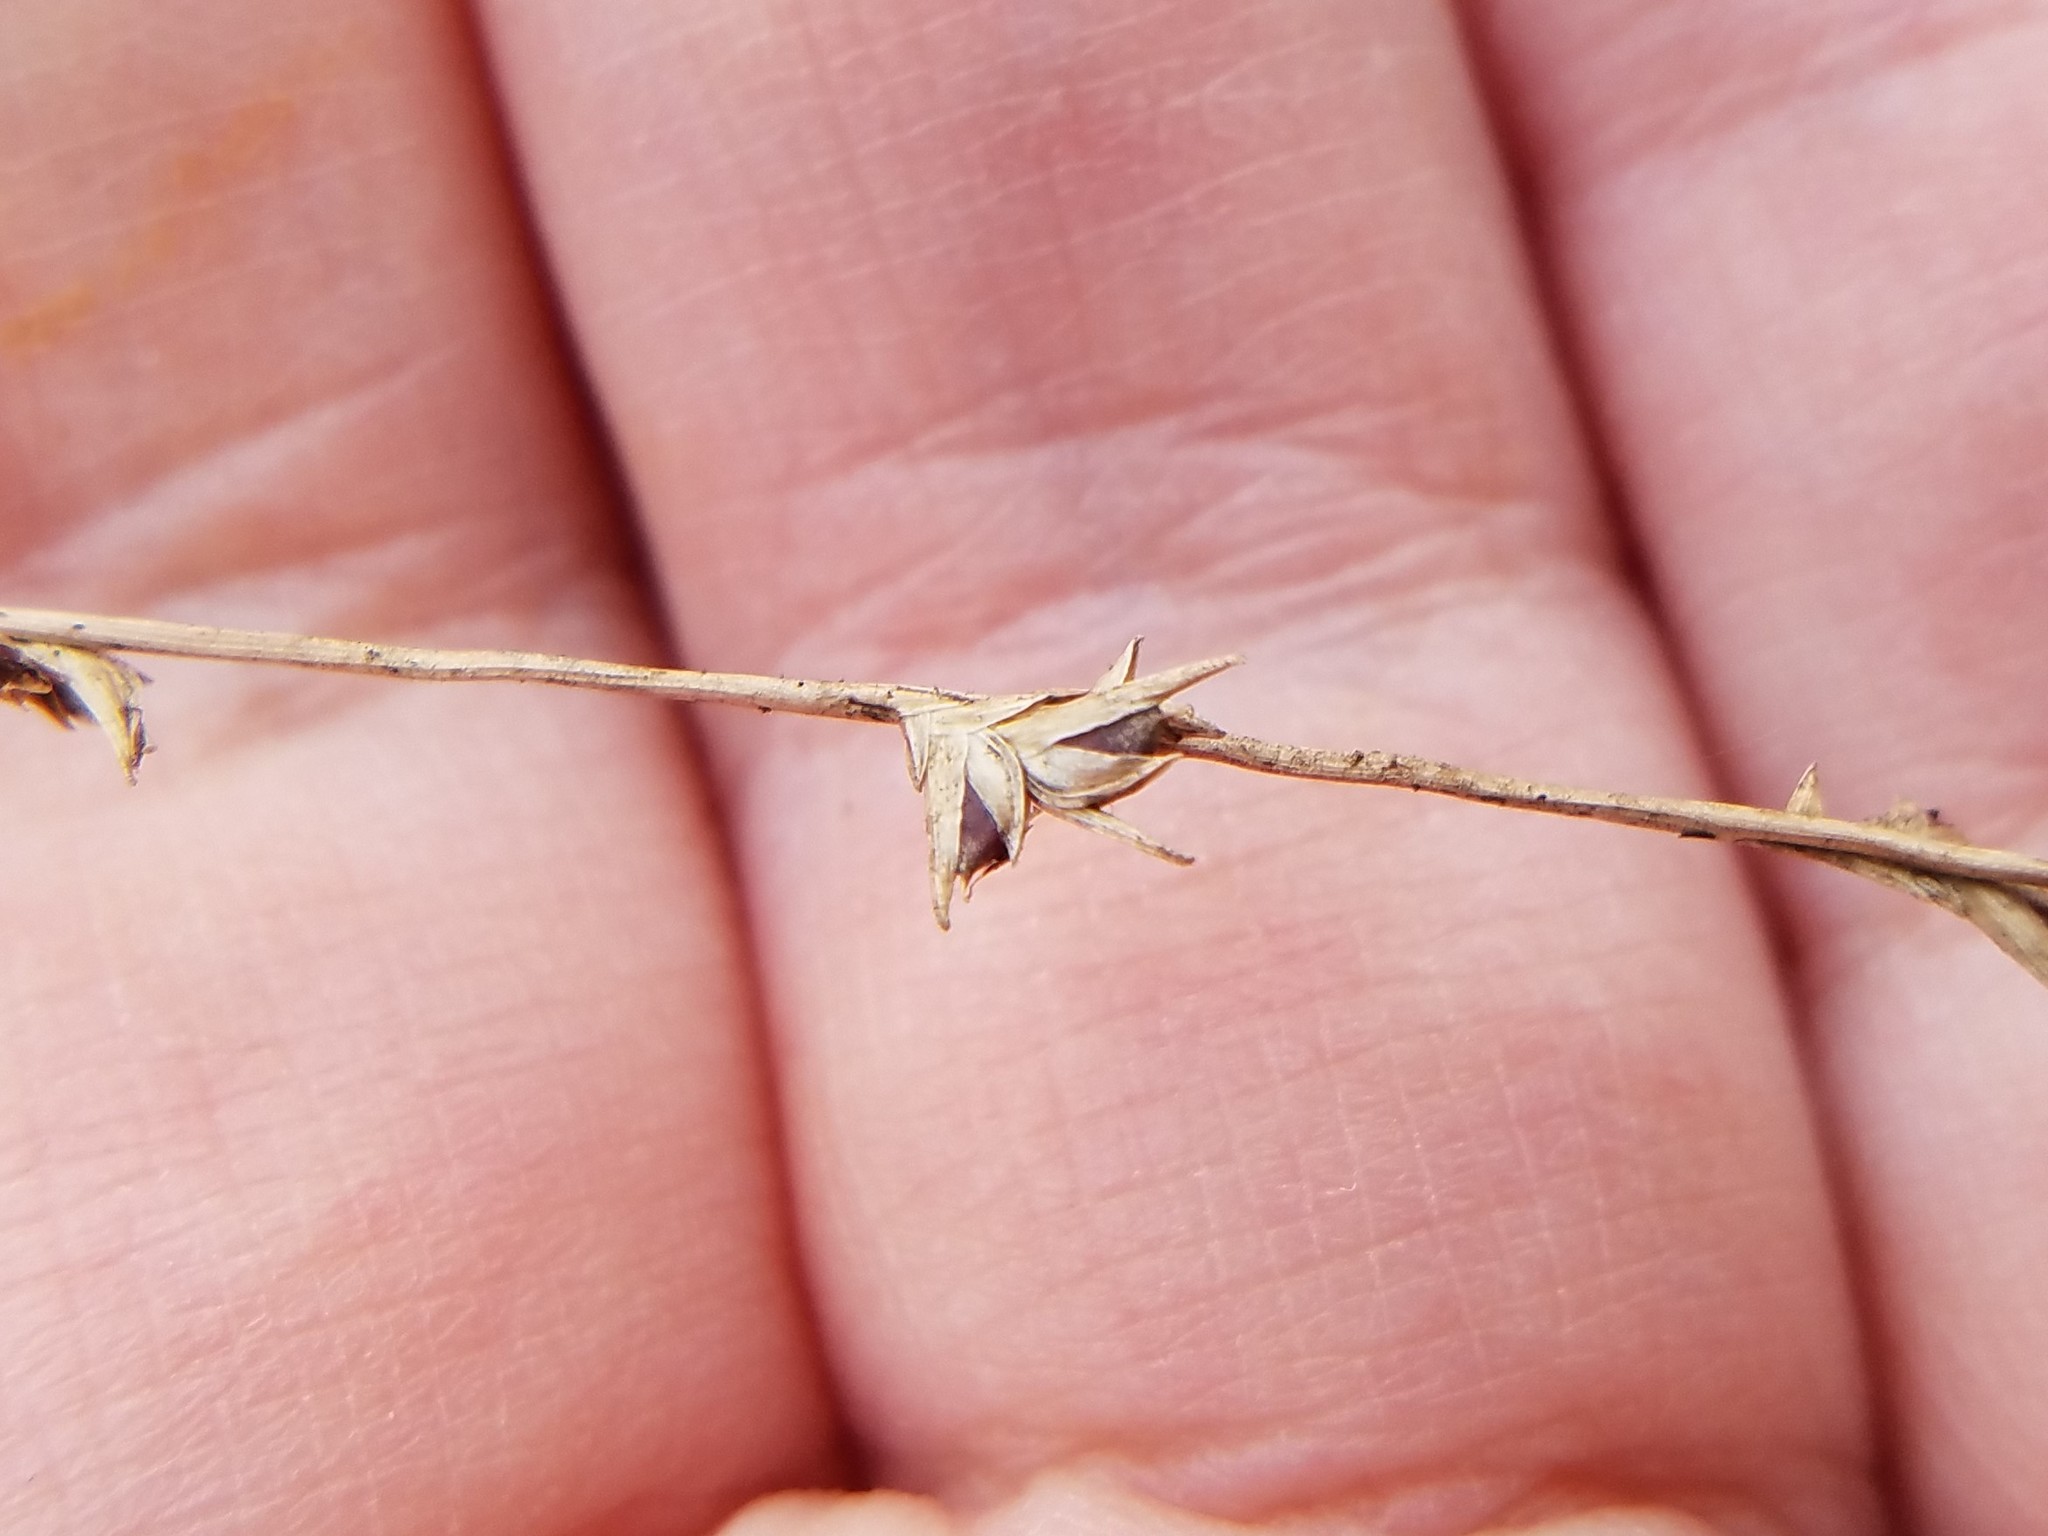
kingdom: Plantae
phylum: Tracheophyta
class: Liliopsida
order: Poales
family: Poaceae
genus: Chasmanthium
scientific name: Chasmanthium laxum
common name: Slender chasmanthium
